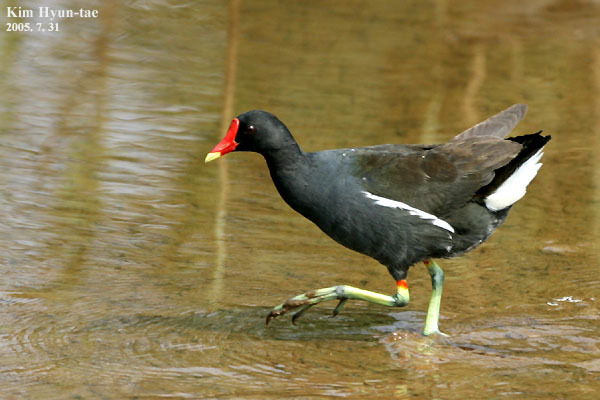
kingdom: Animalia
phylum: Chordata
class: Aves
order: Gruiformes
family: Rallidae
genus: Gallinula
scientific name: Gallinula chloropus
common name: Common moorhen
